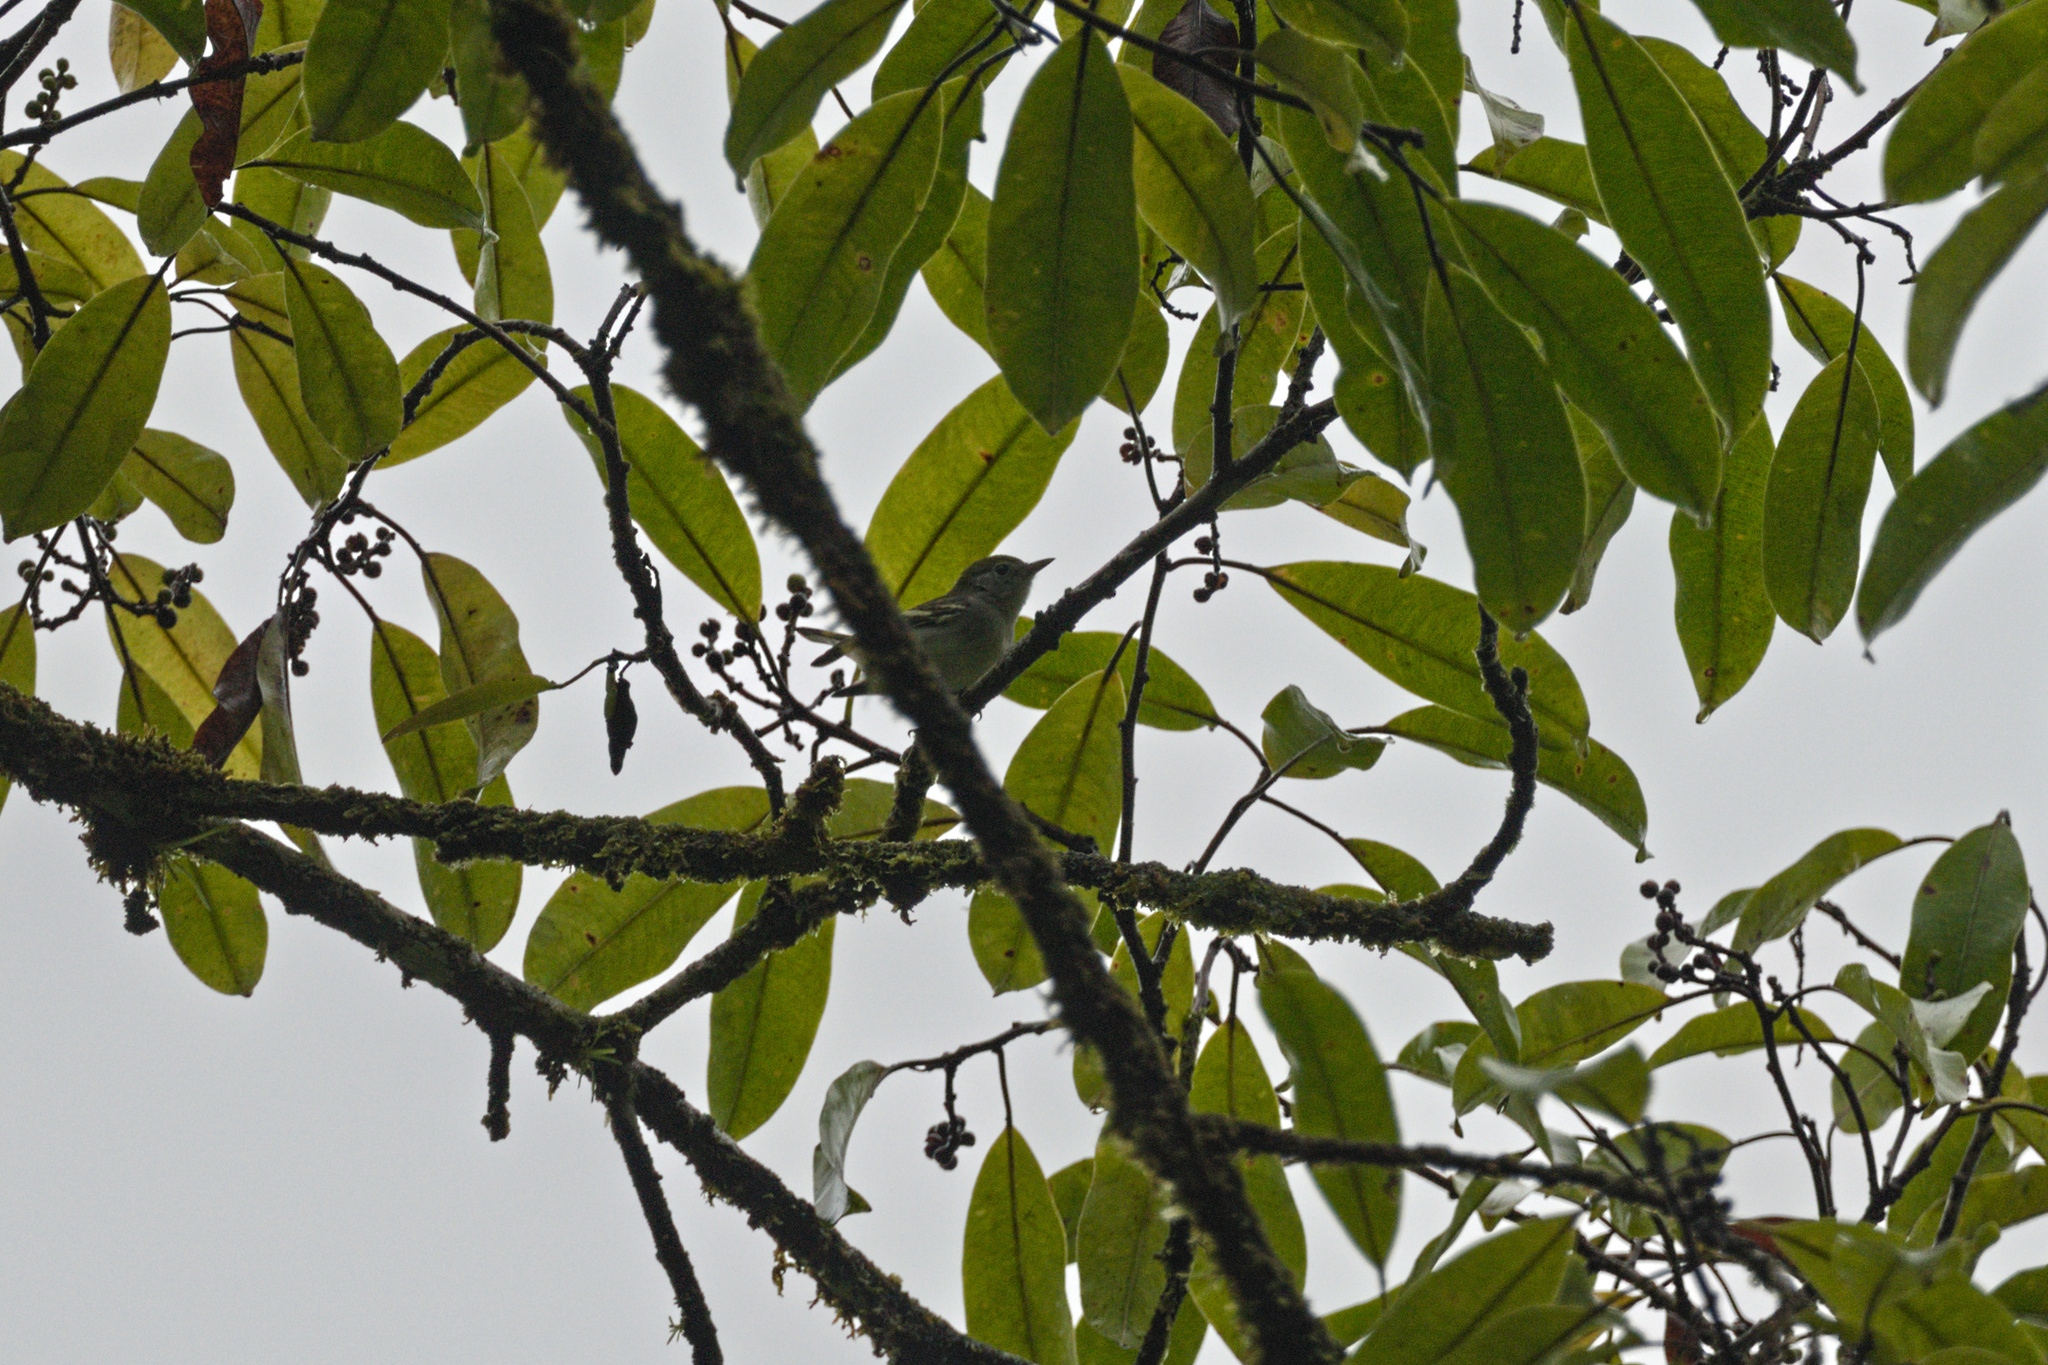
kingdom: Animalia
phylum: Chordata
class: Aves
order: Passeriformes
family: Parulidae
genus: Setophaga
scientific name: Setophaga pensylvanica
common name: Chestnut-sided warbler
